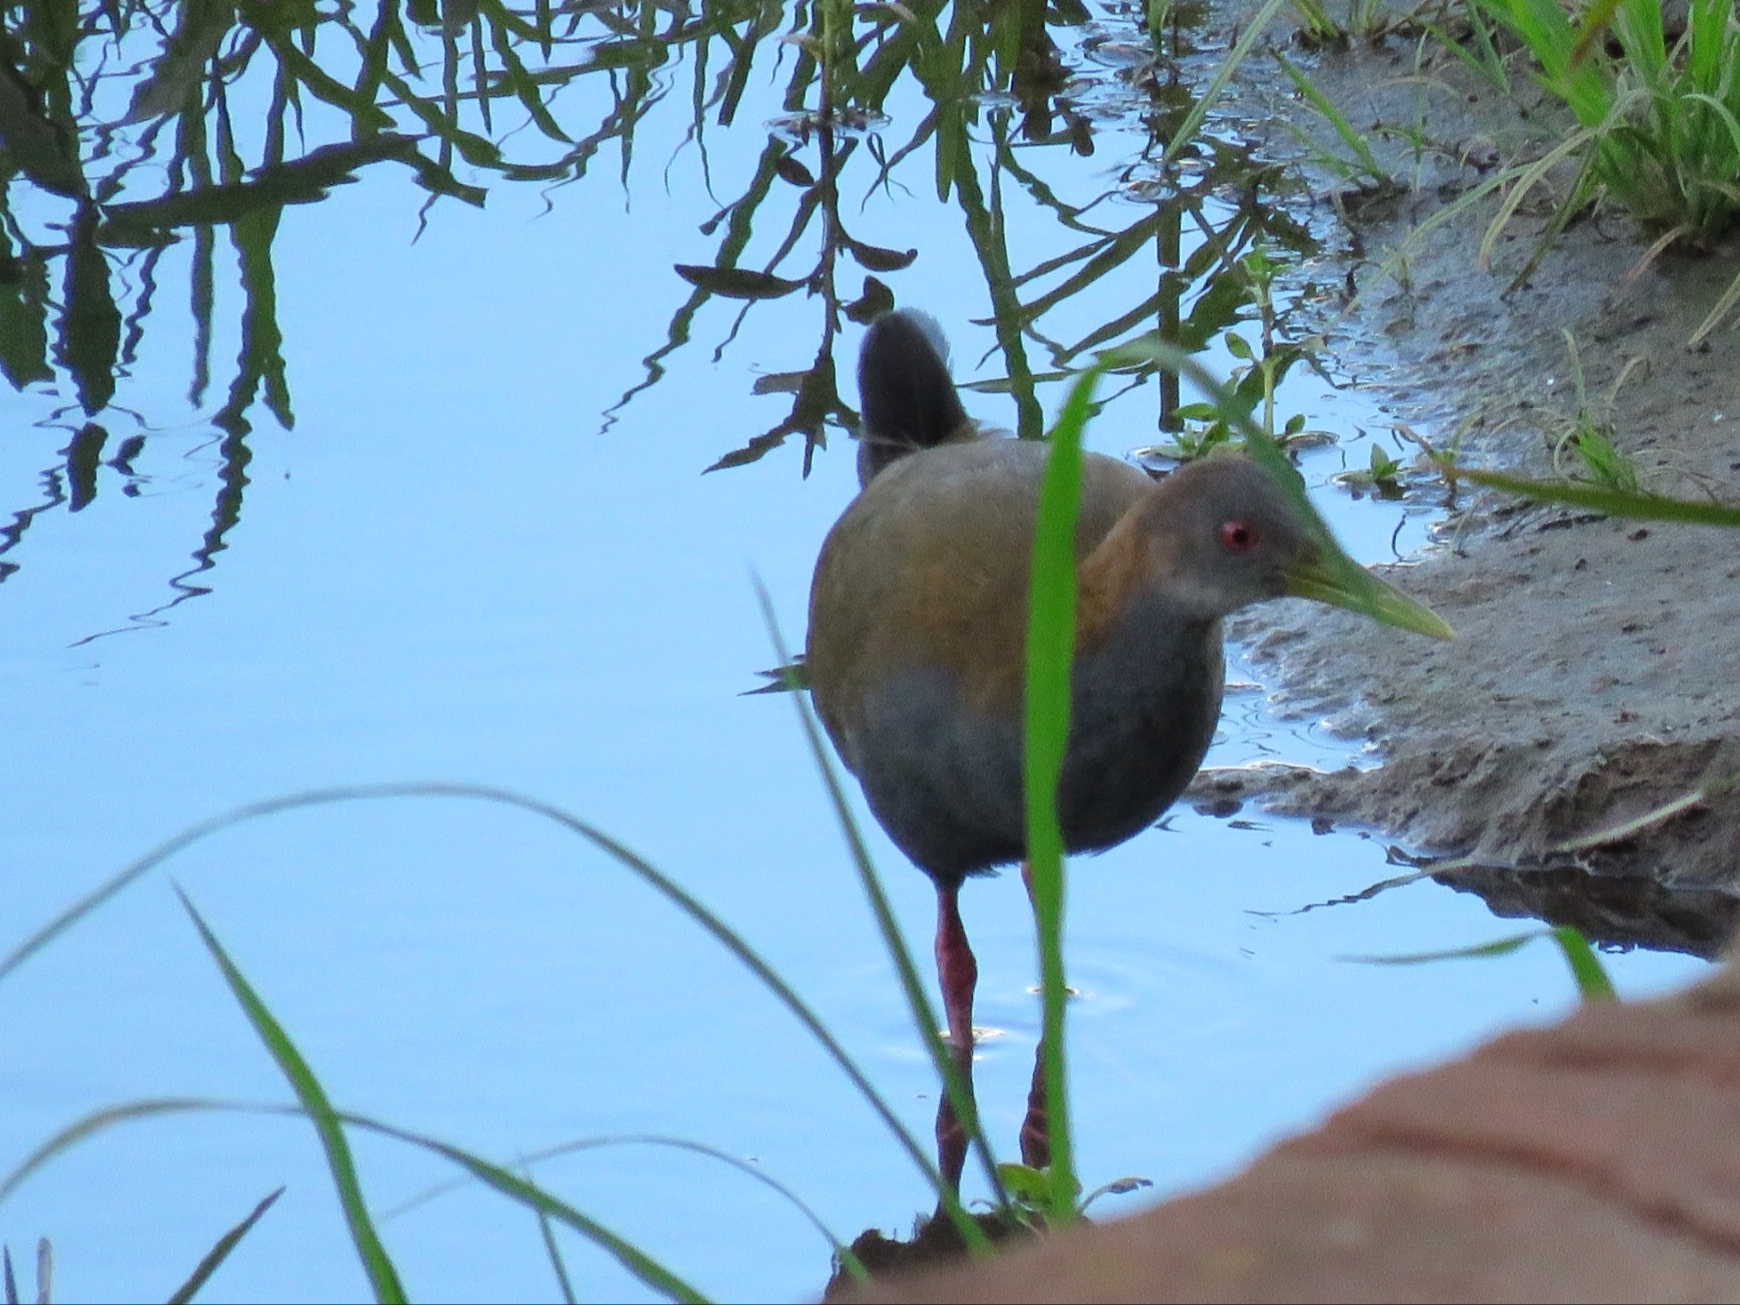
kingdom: Animalia
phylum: Chordata
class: Aves
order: Gruiformes
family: Rallidae
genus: Aramides
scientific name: Aramides saracura
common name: Slaty-breasted wood rail
